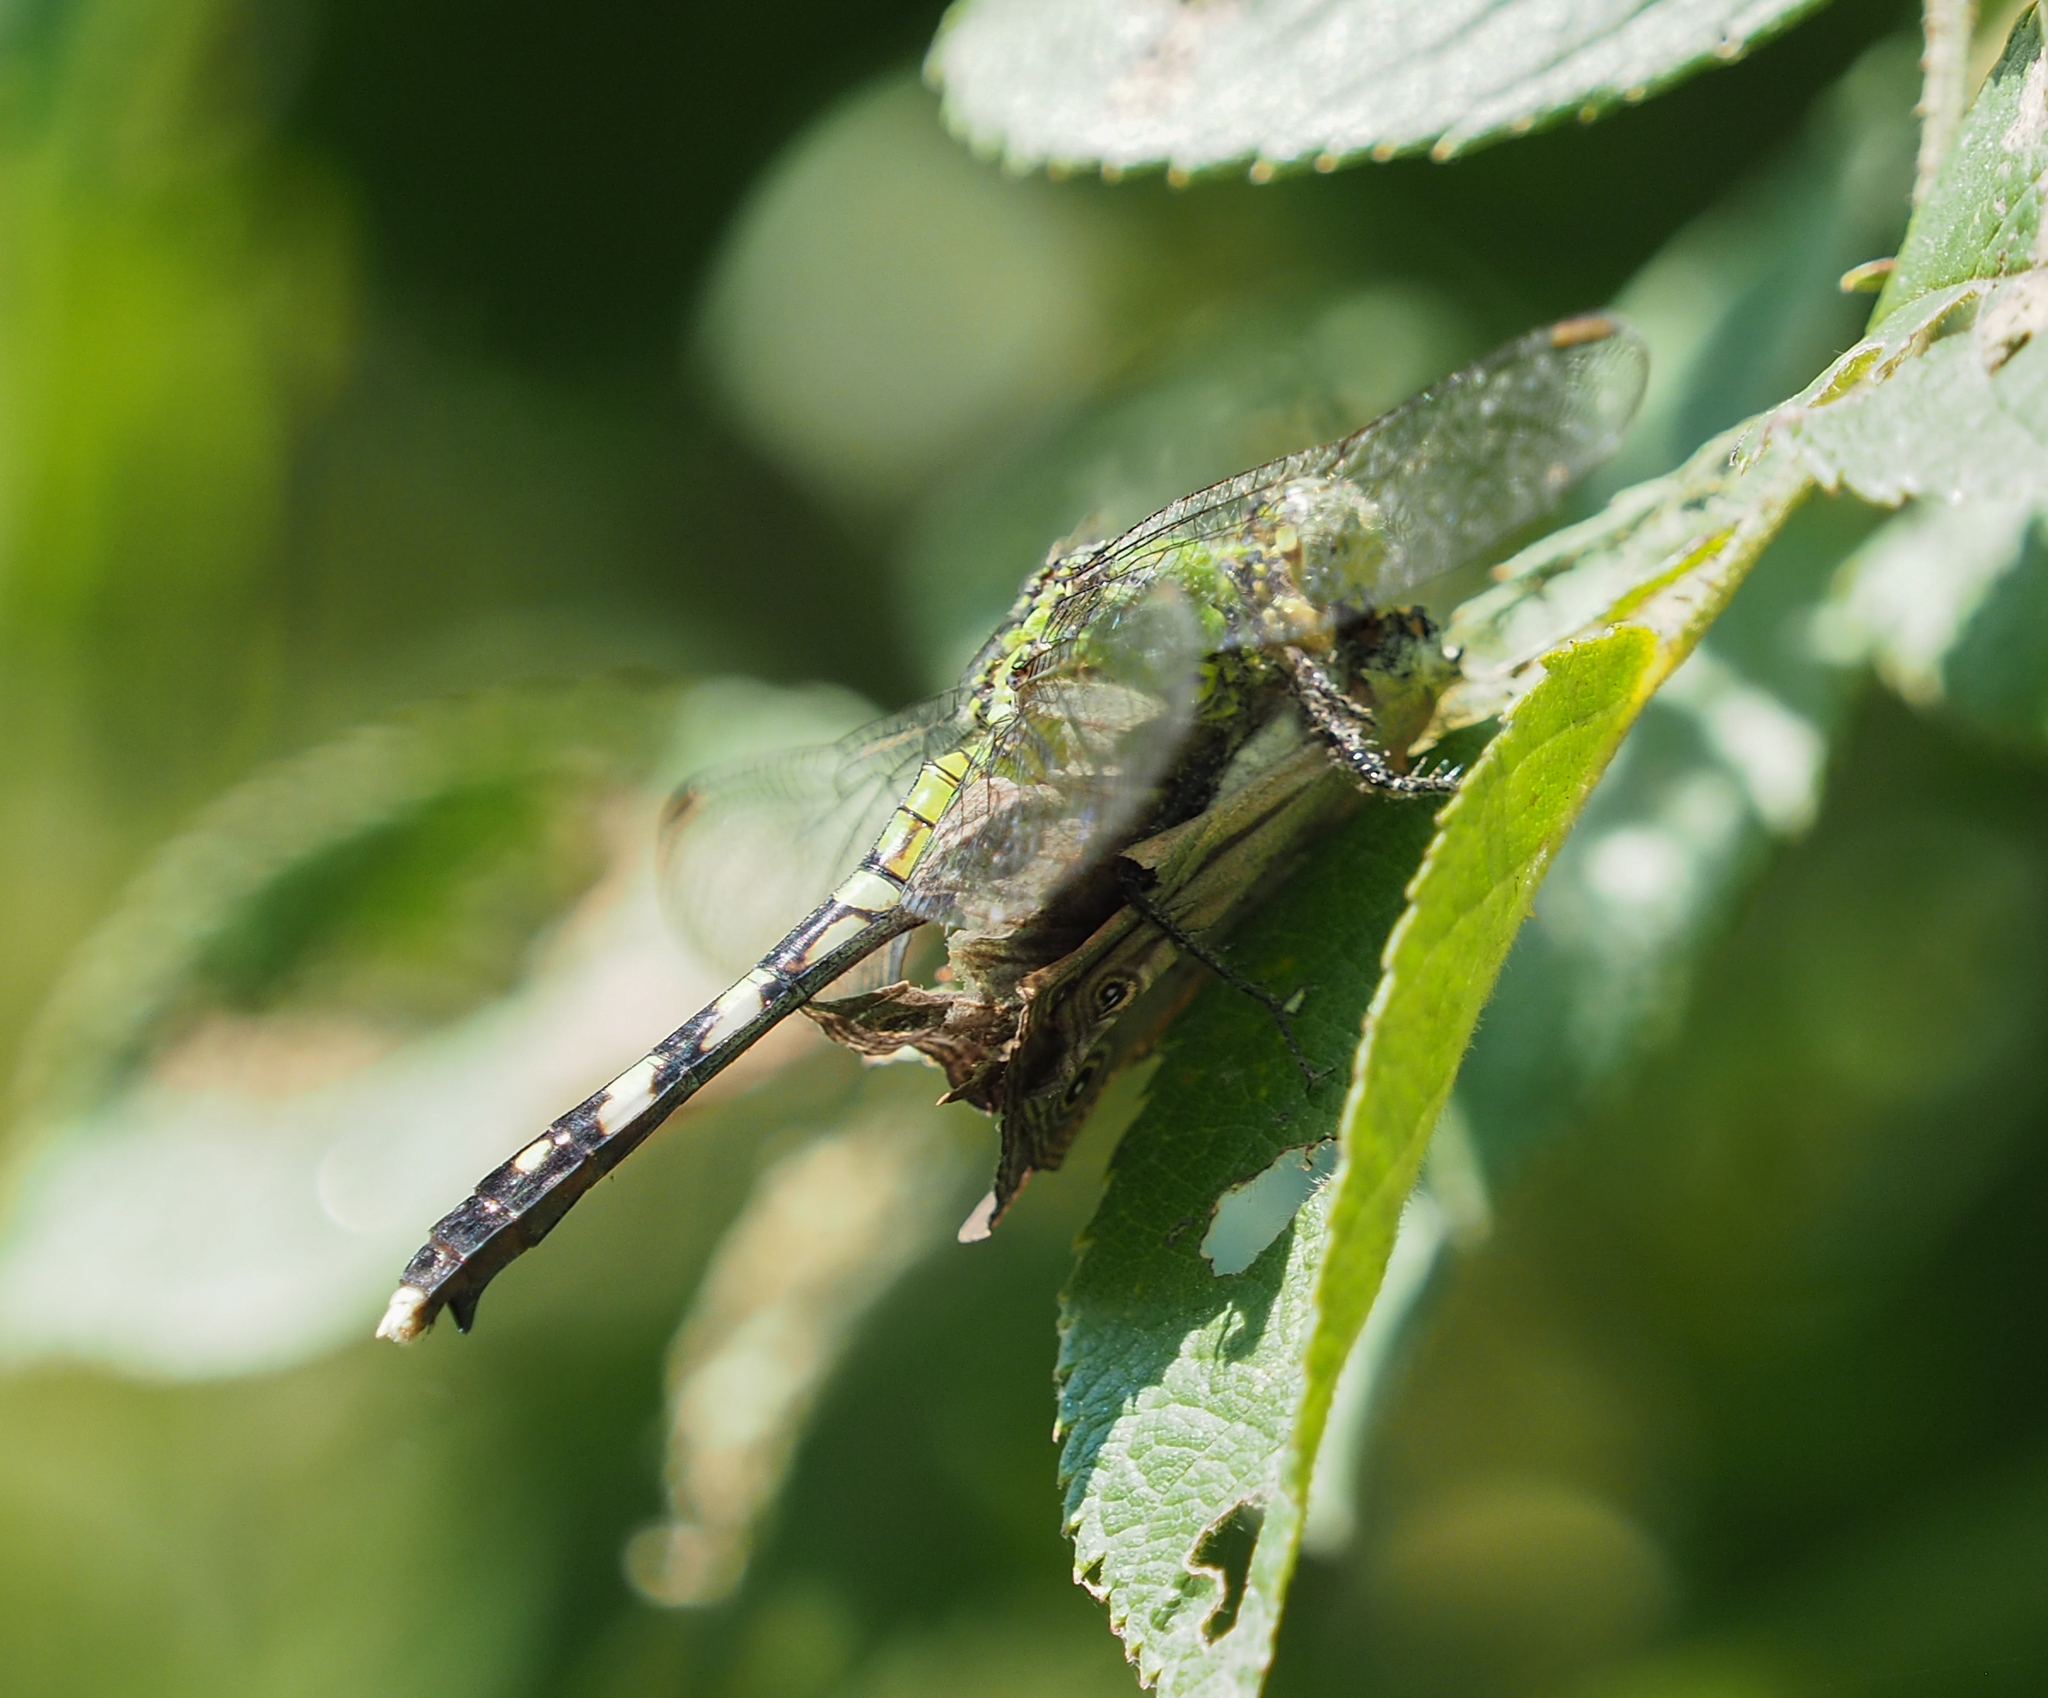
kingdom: Animalia
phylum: Arthropoda
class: Insecta
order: Lepidoptera
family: Nymphalidae
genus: Lethe
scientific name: Lethe eurydice
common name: Eyed brown
